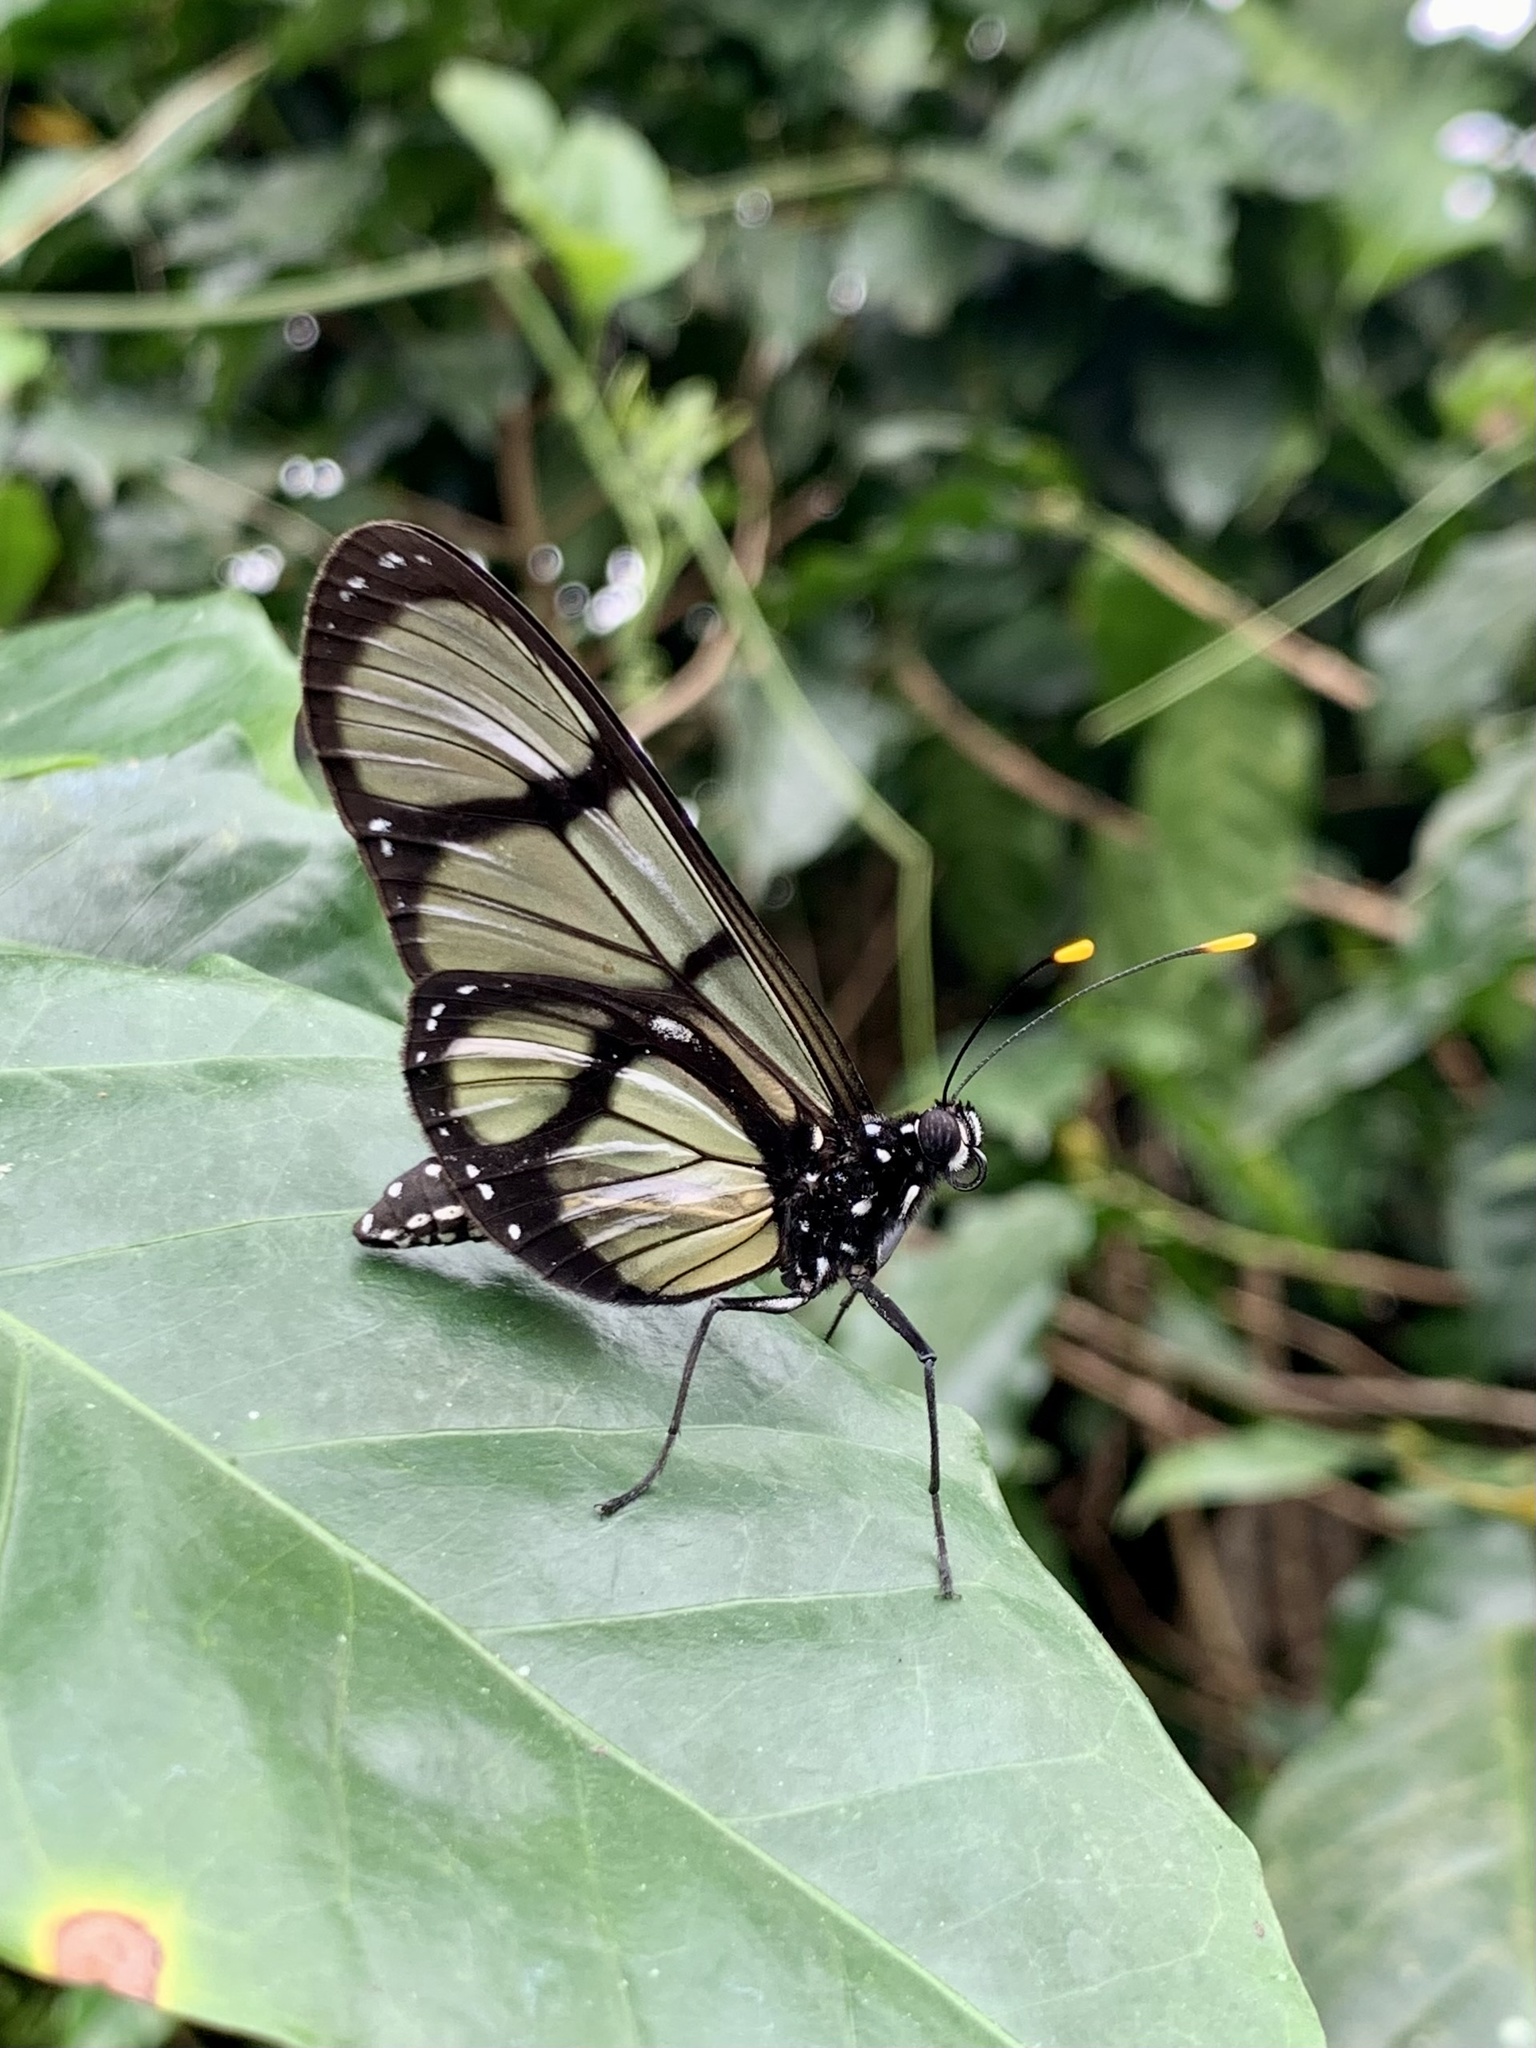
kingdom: Animalia
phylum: Arthropoda
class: Insecta
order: Lepidoptera
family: Nymphalidae
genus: Methona
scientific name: Methona confusa
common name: Confusa tigerwing
